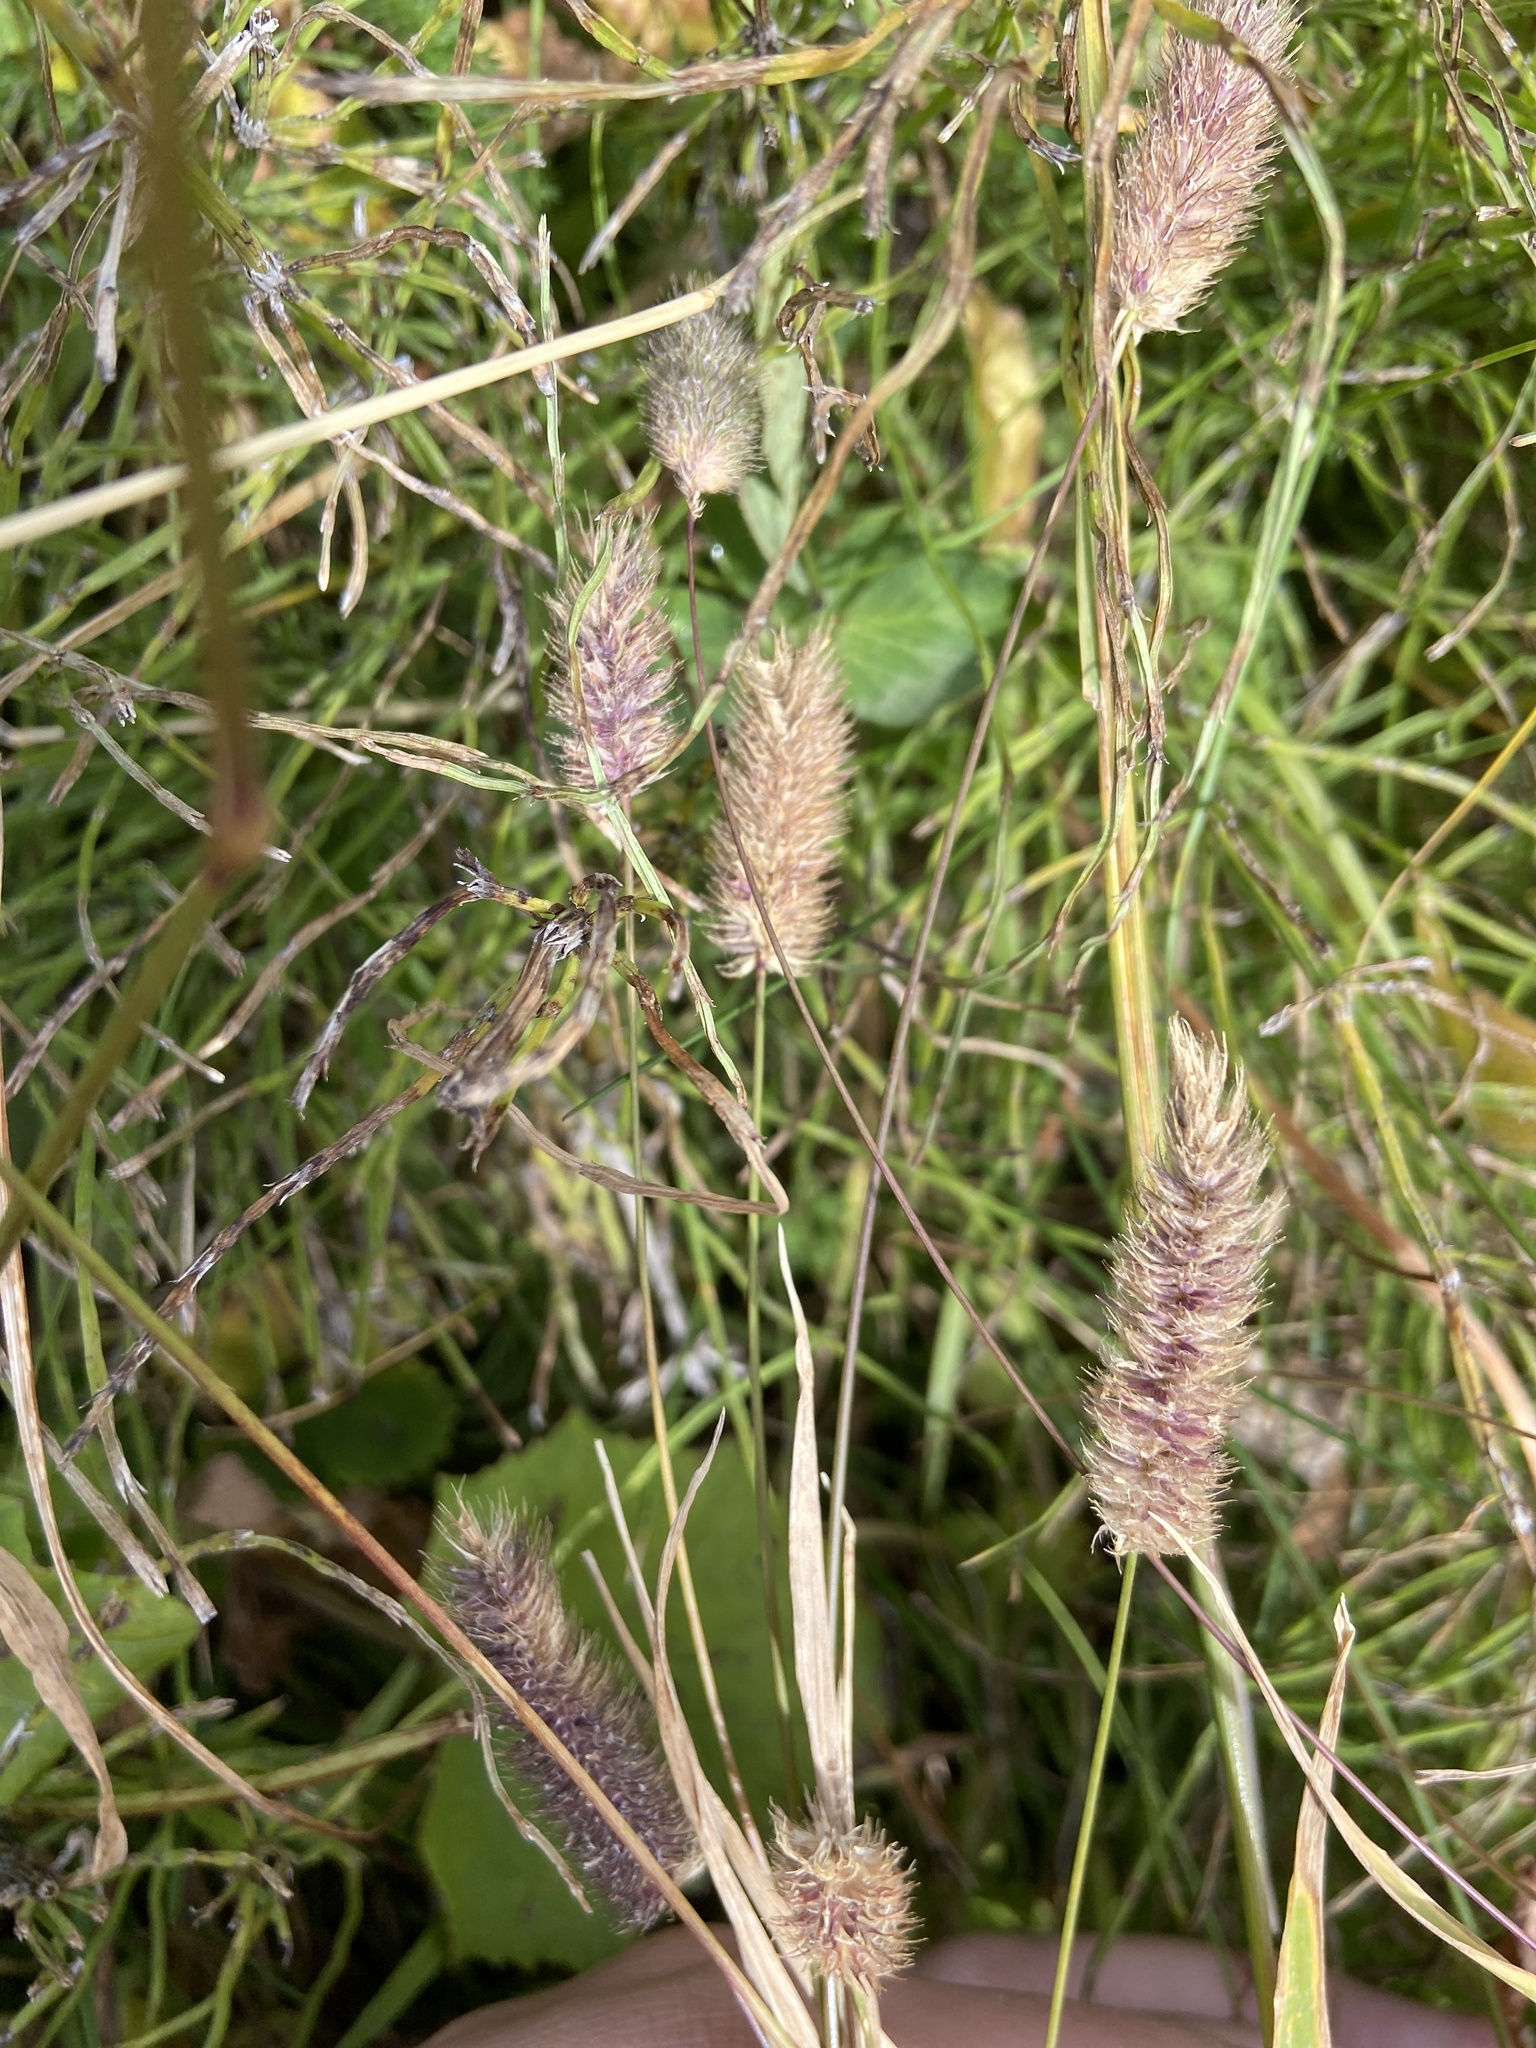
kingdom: Plantae
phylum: Tracheophyta
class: Liliopsida
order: Poales
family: Poaceae
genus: Phleum
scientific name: Phleum alpinum
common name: Alpine cat's-tail
